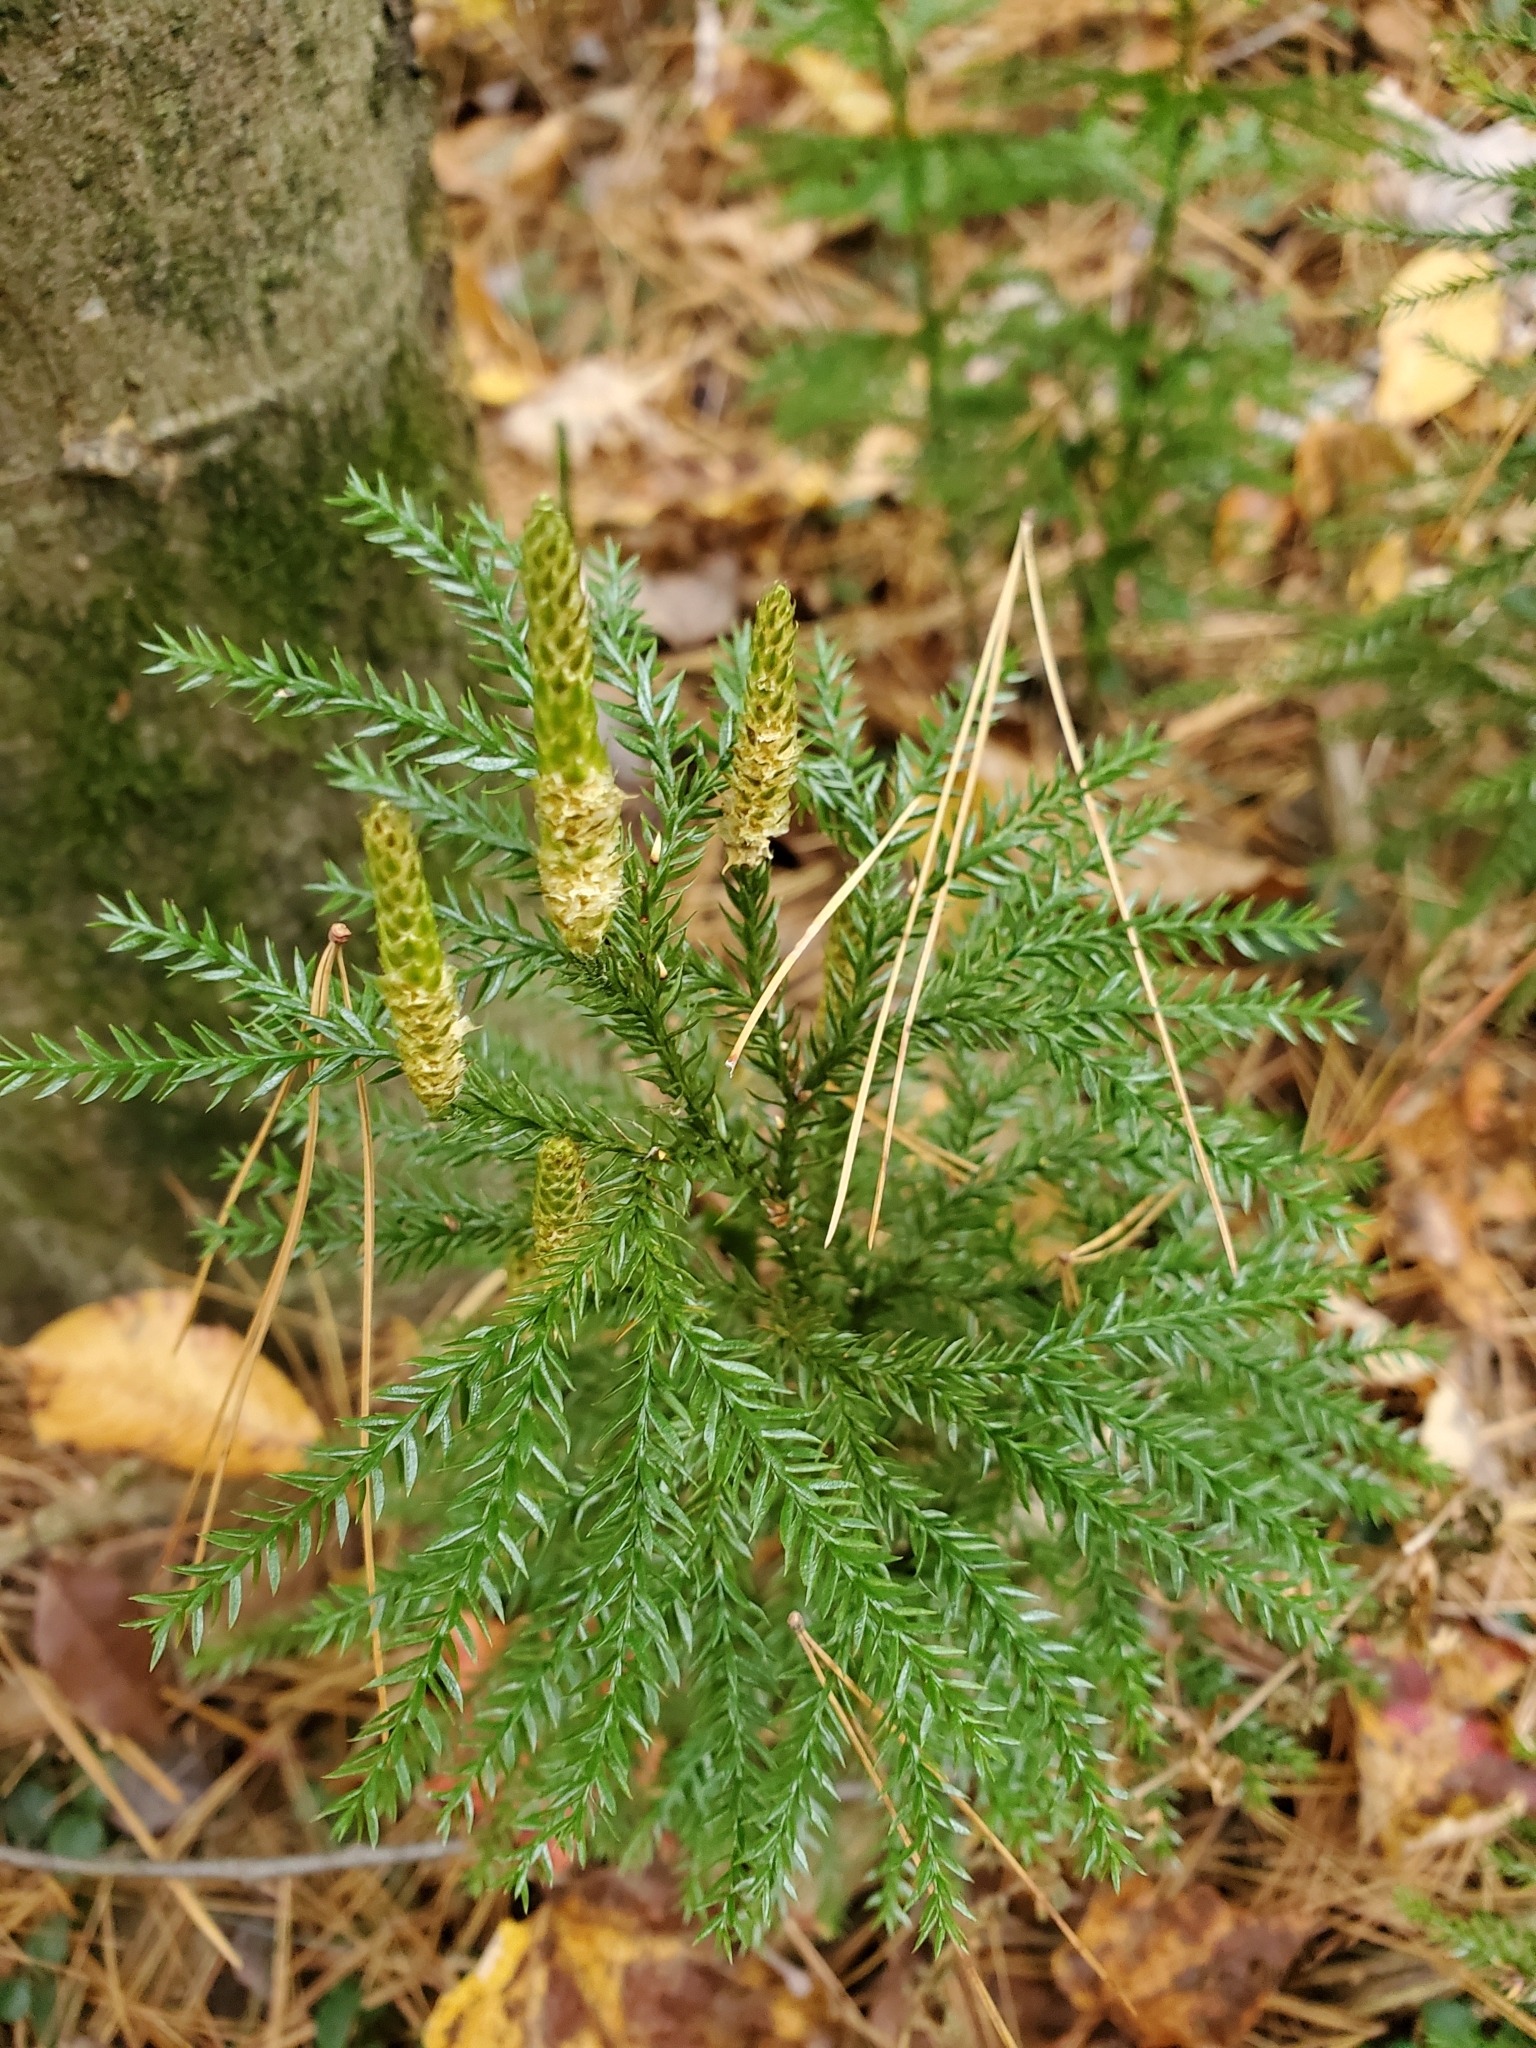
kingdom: Plantae
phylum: Tracheophyta
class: Lycopodiopsida
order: Lycopodiales
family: Lycopodiaceae
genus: Dendrolycopodium
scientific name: Dendrolycopodium dendroideum
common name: Northern tree-clubmoss
